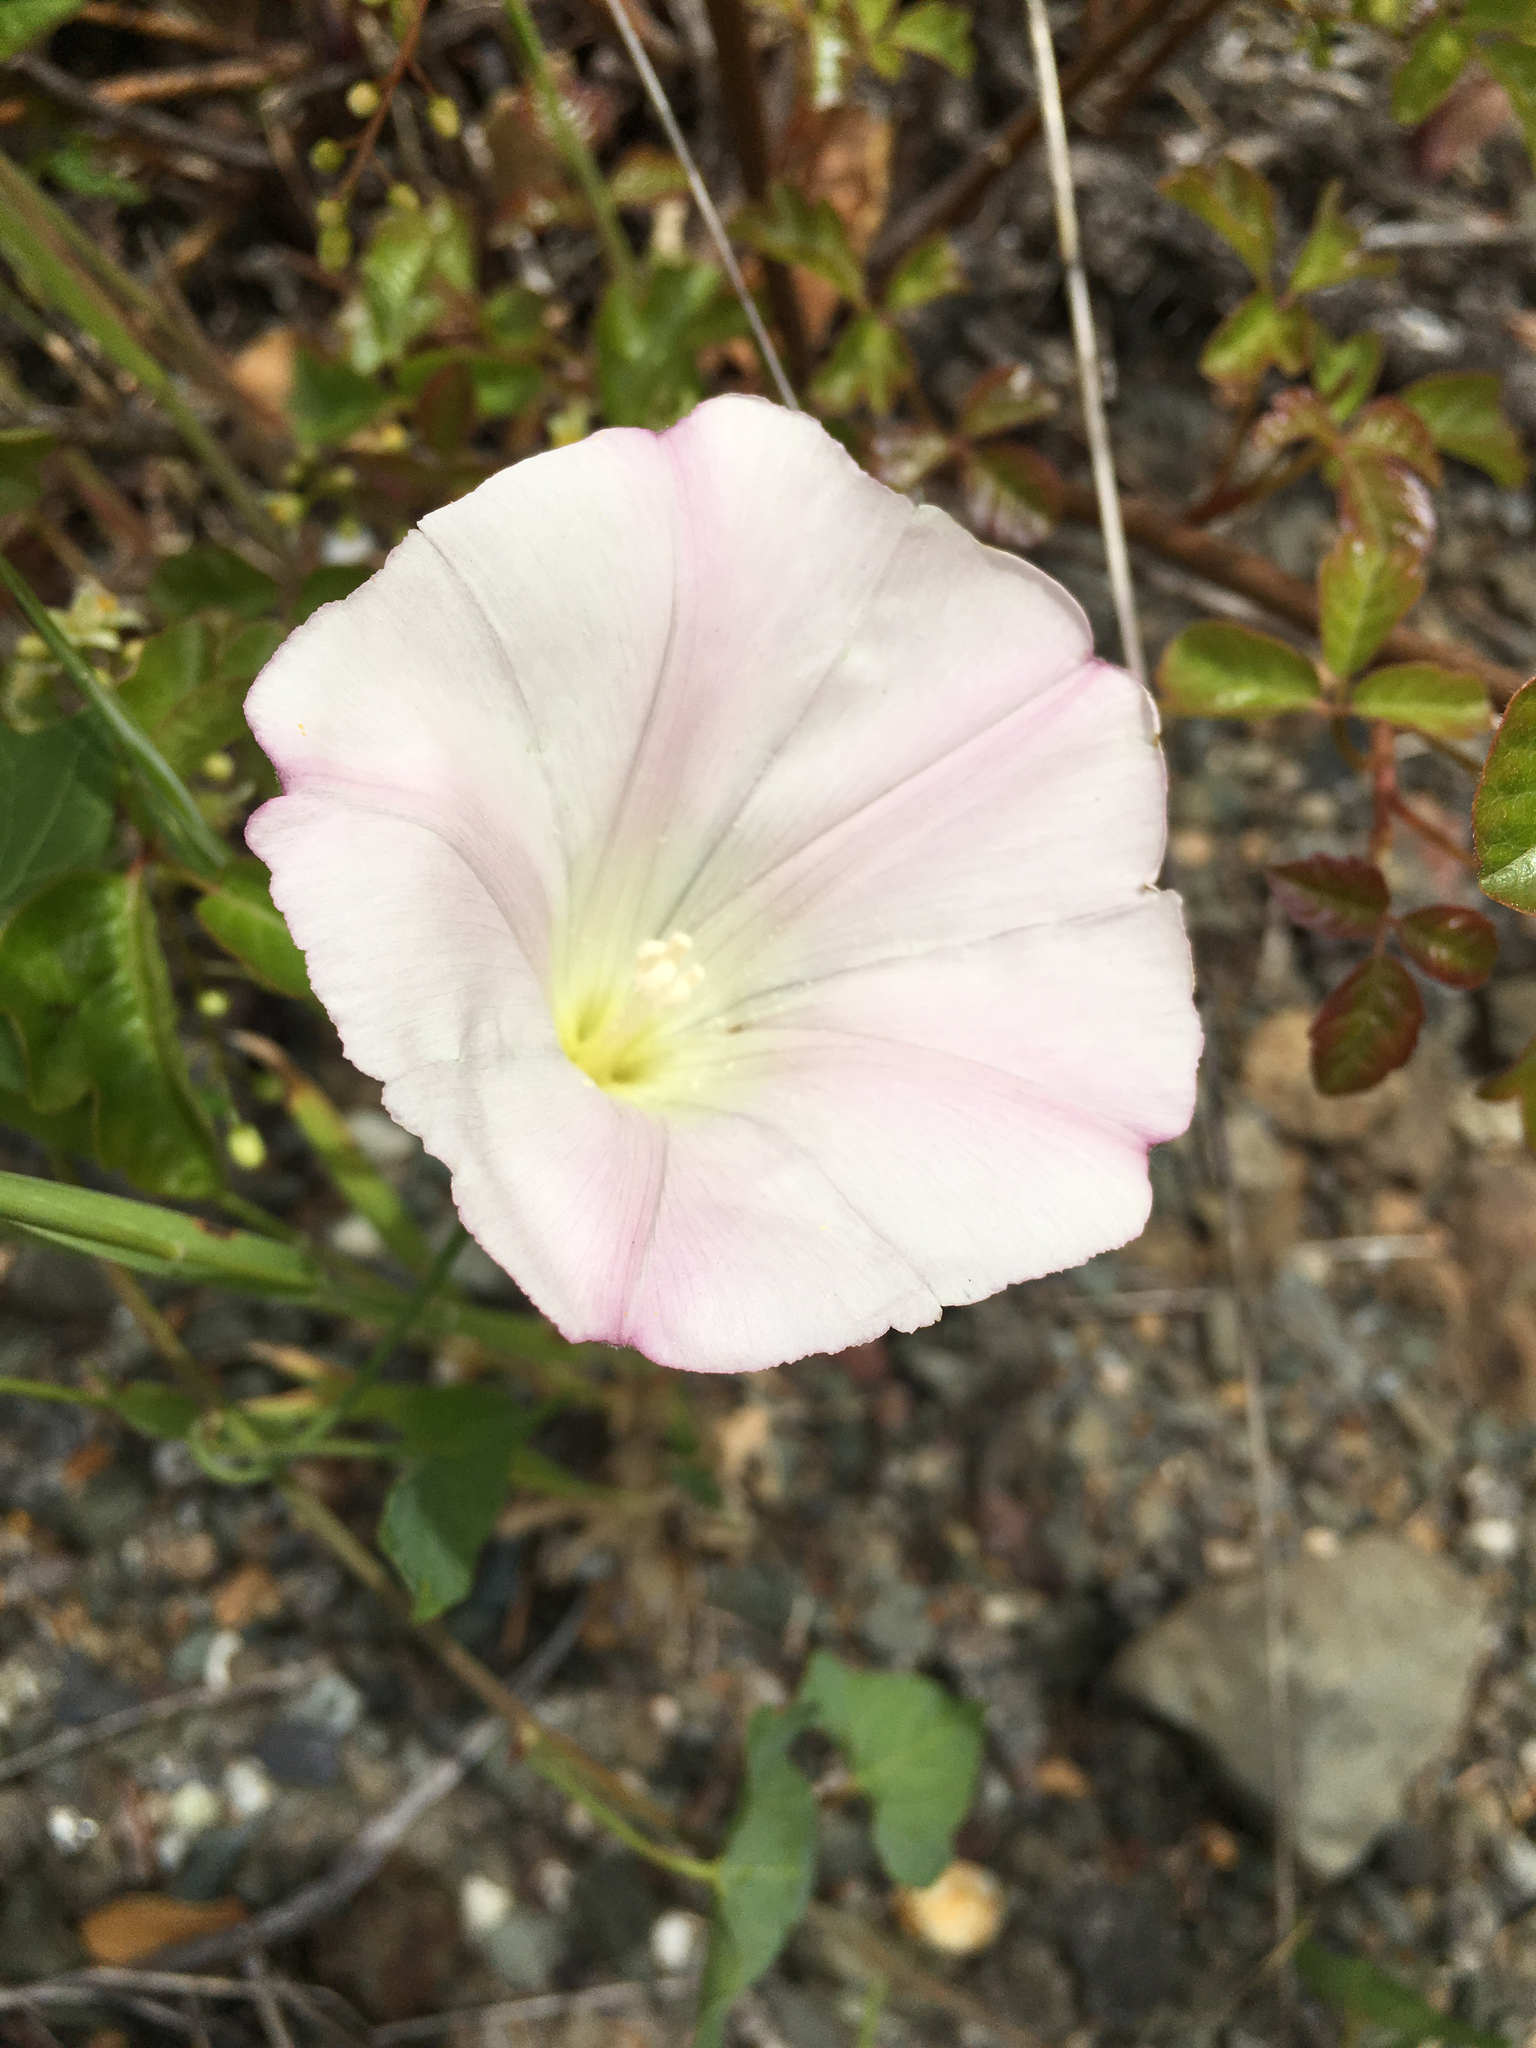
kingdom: Plantae
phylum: Tracheophyta
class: Magnoliopsida
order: Solanales
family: Convolvulaceae
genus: Calystegia
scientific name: Calystegia purpurata
